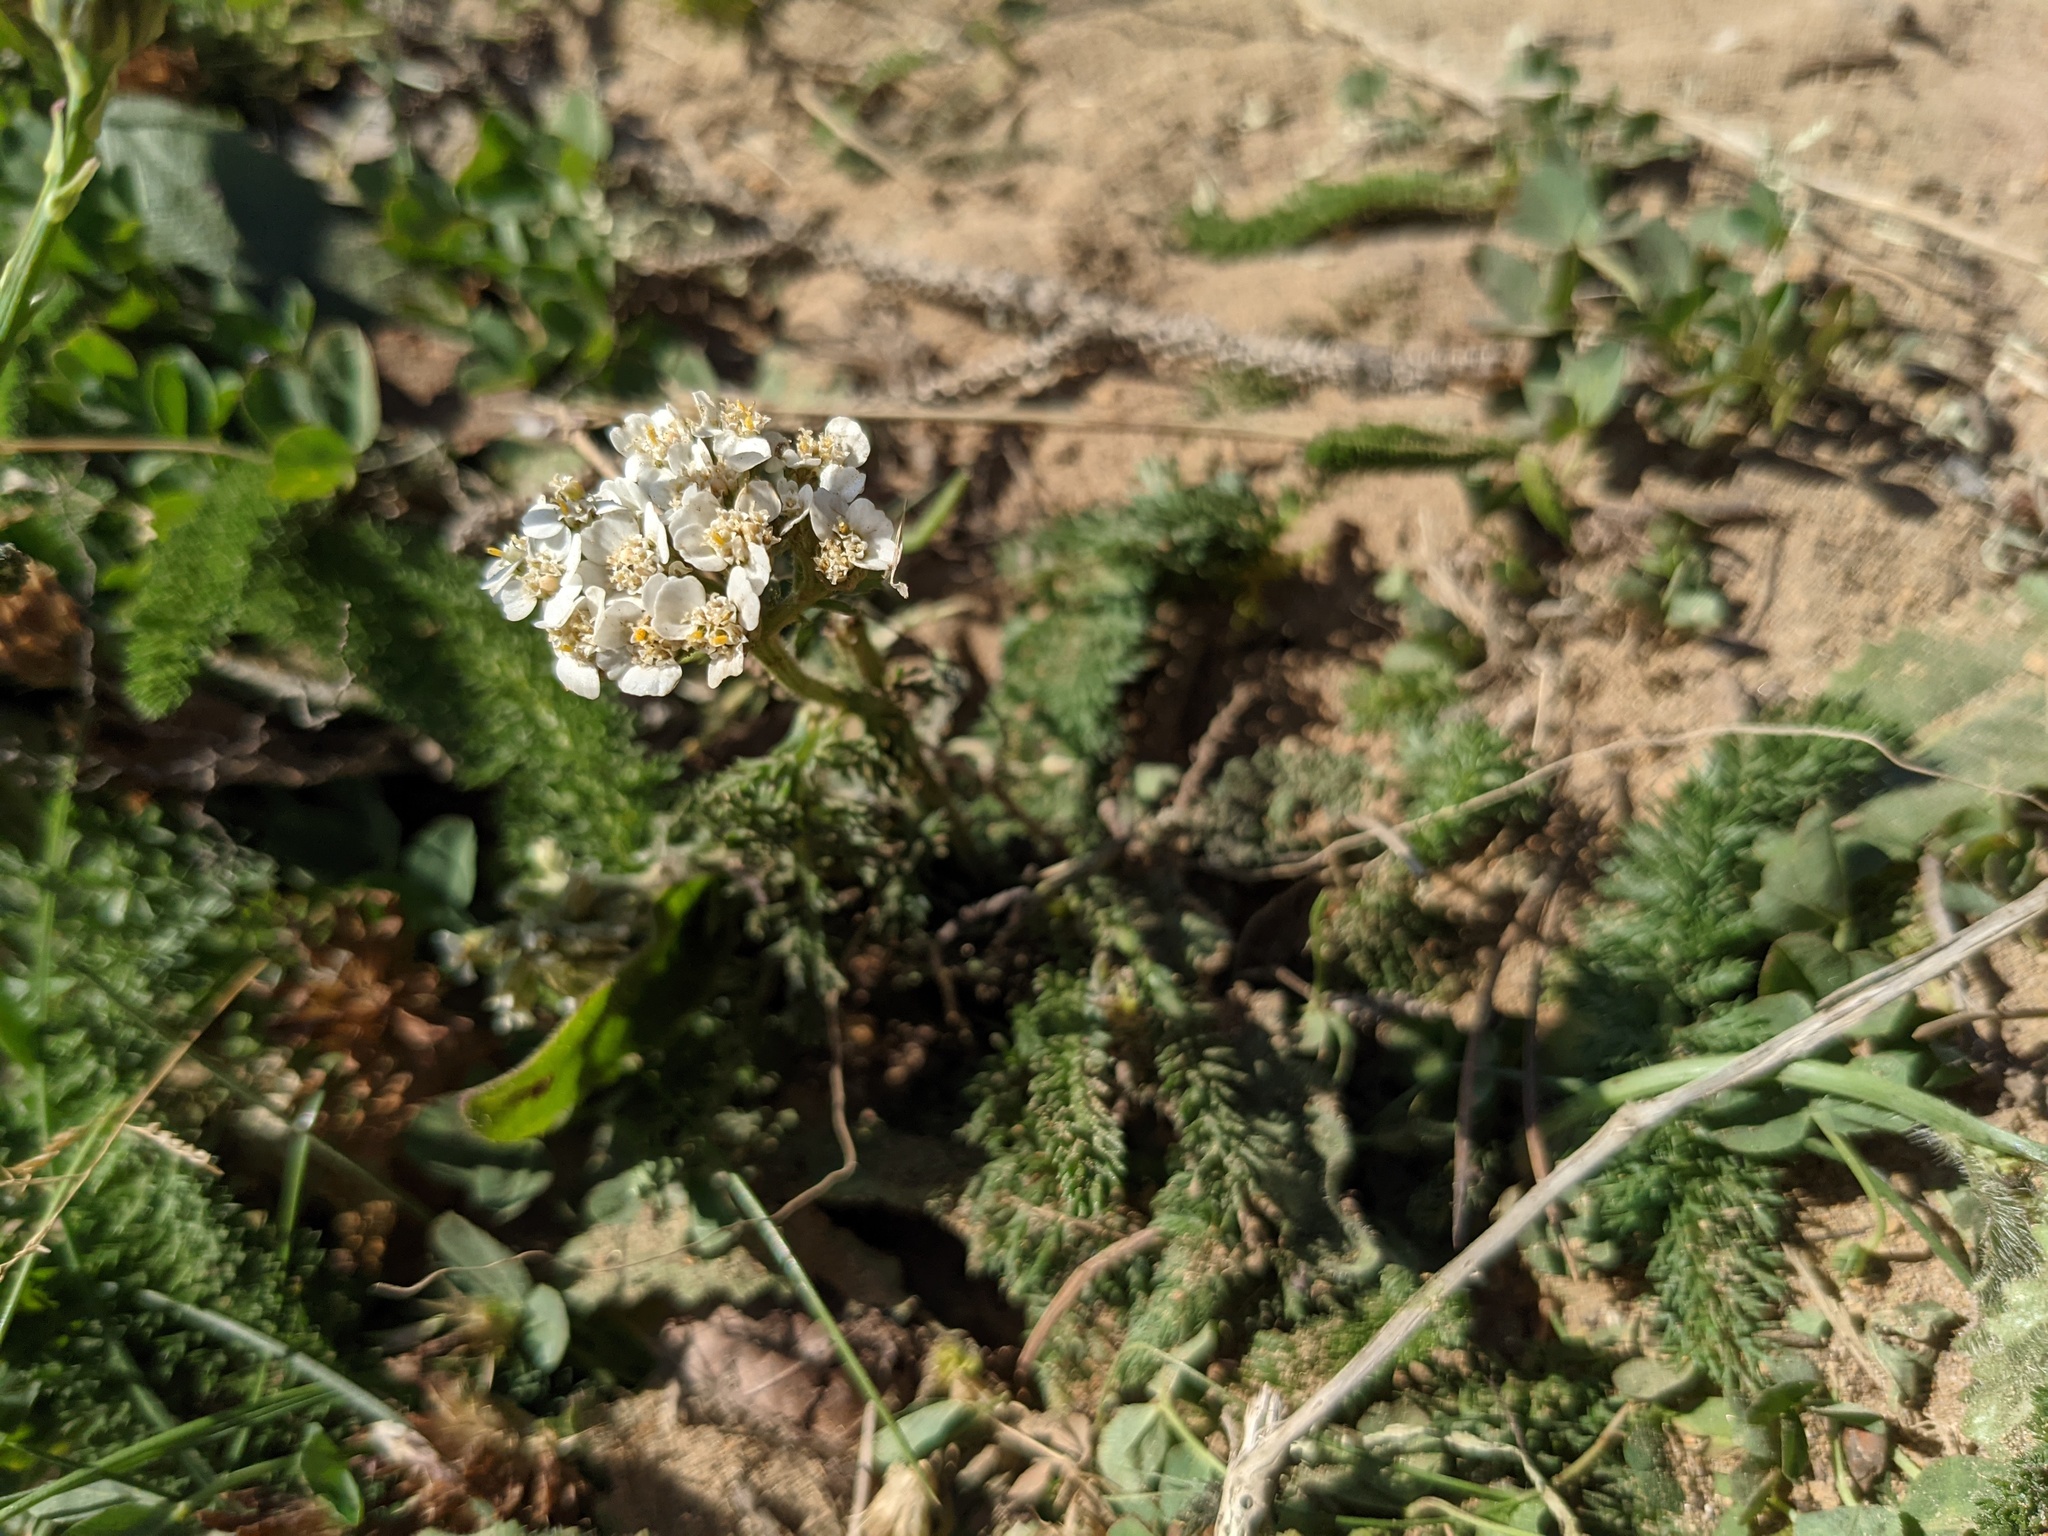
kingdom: Plantae
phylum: Tracheophyta
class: Magnoliopsida
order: Asterales
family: Asteraceae
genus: Achillea
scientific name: Achillea millefolium
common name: Yarrow
